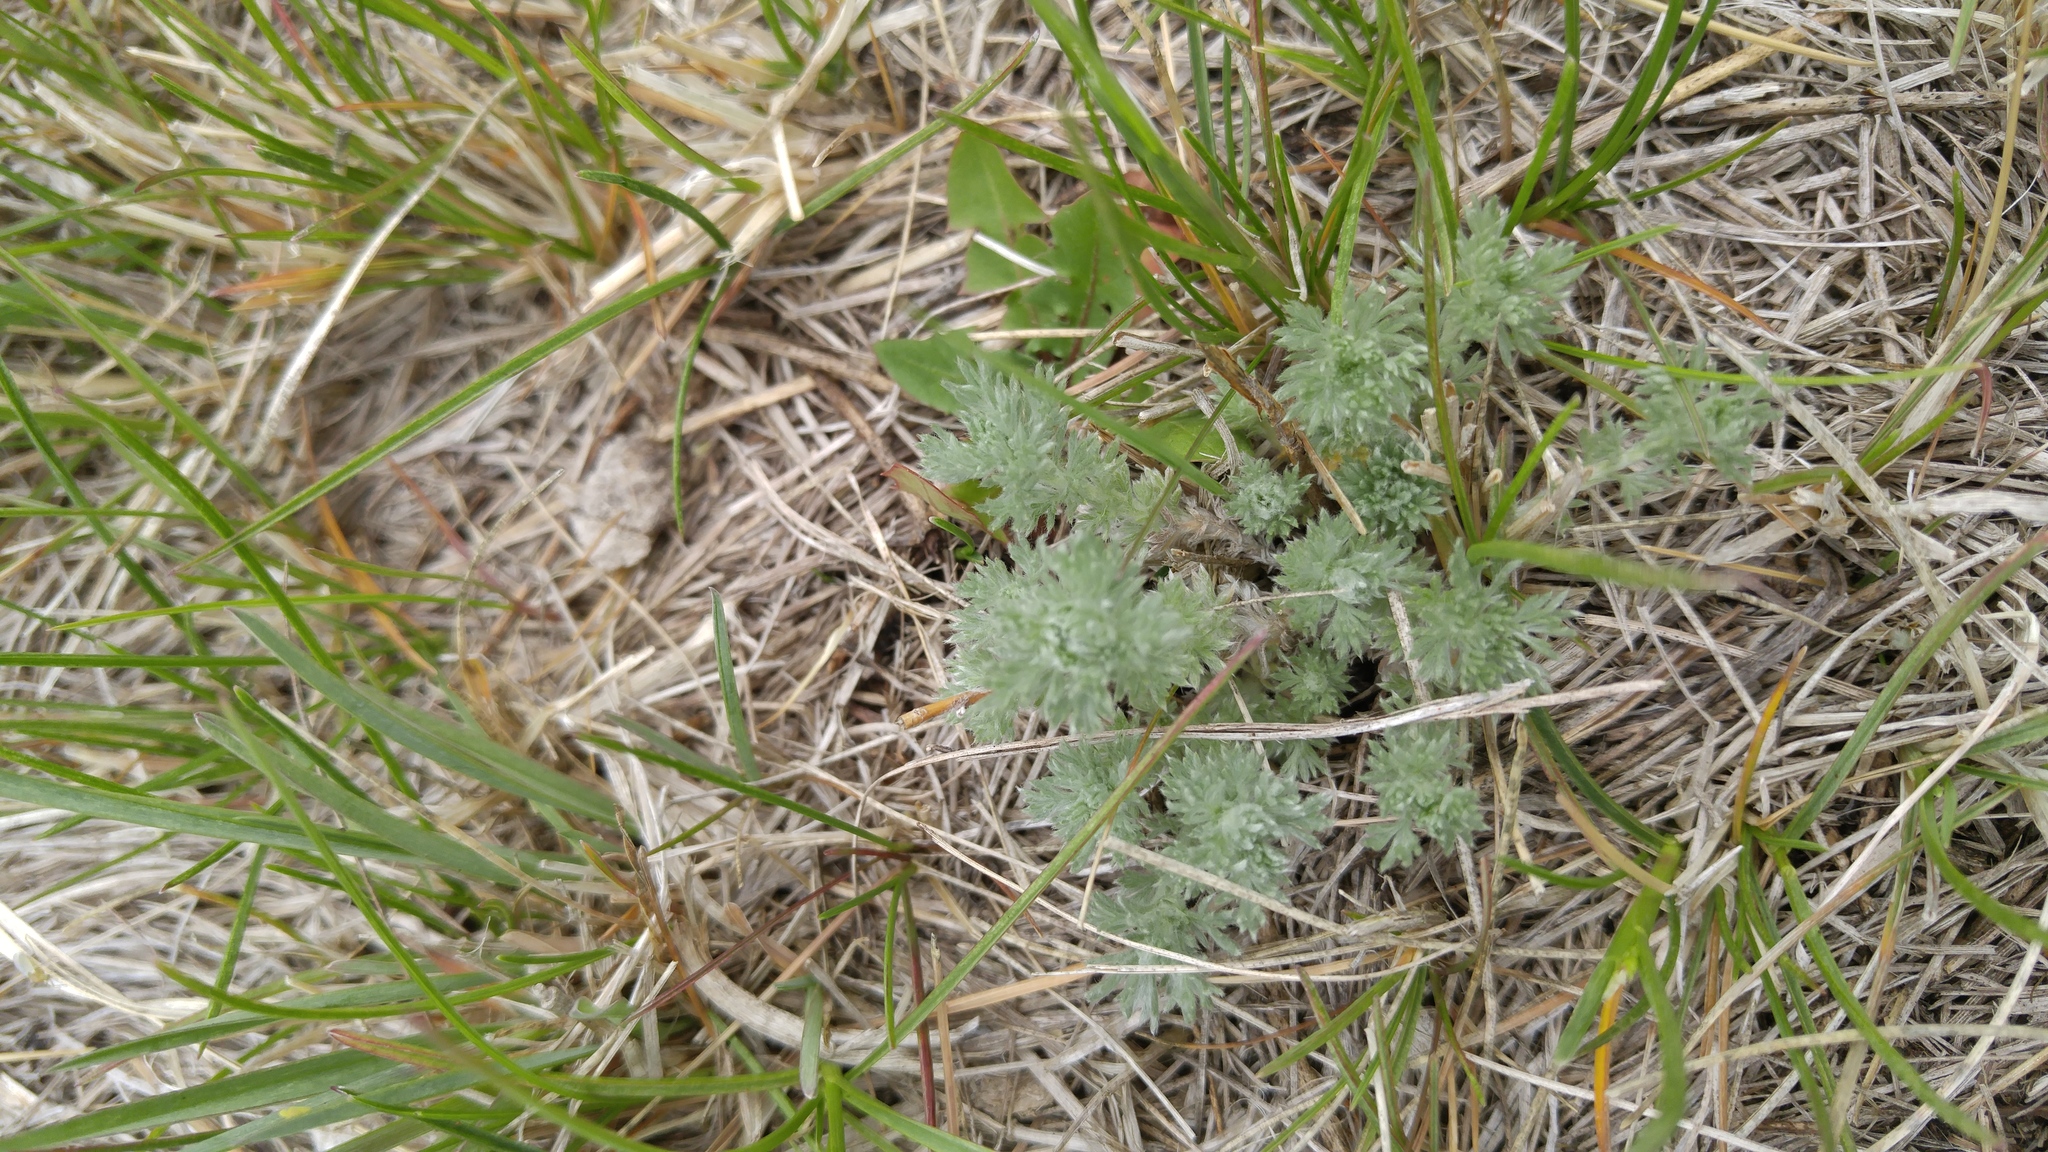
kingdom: Plantae
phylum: Tracheophyta
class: Magnoliopsida
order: Asterales
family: Asteraceae
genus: Artemisia
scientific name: Artemisia frigida
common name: Prairie sagewort
